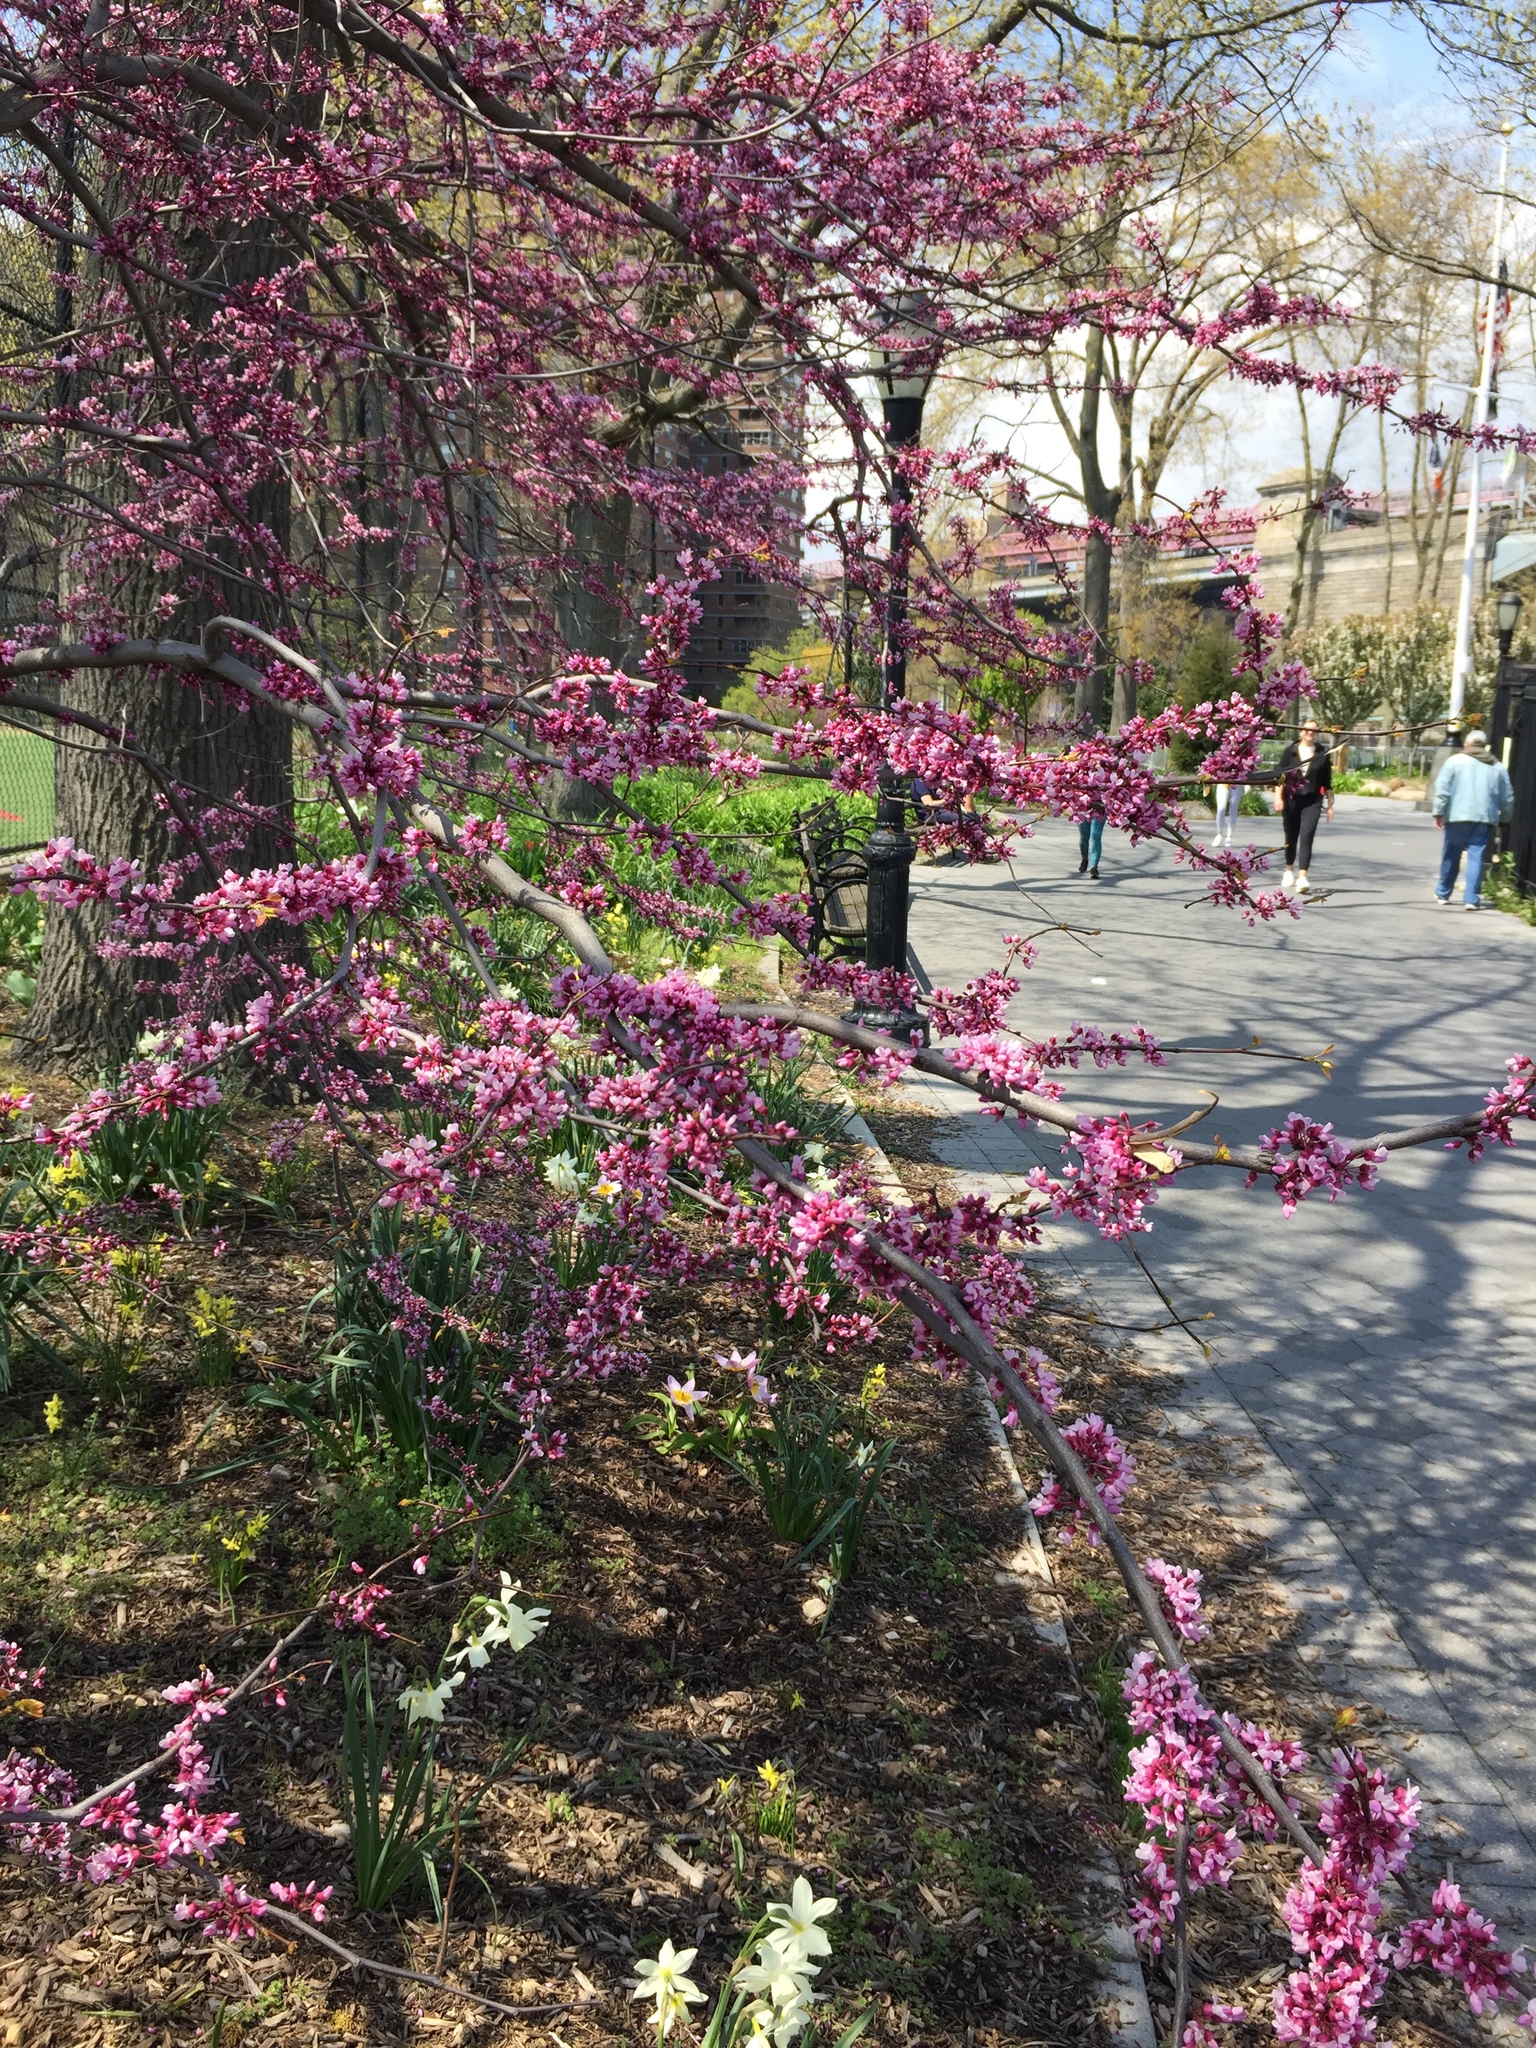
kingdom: Plantae
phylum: Tracheophyta
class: Magnoliopsida
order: Fabales
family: Fabaceae
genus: Cercis
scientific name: Cercis canadensis
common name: Eastern redbud
